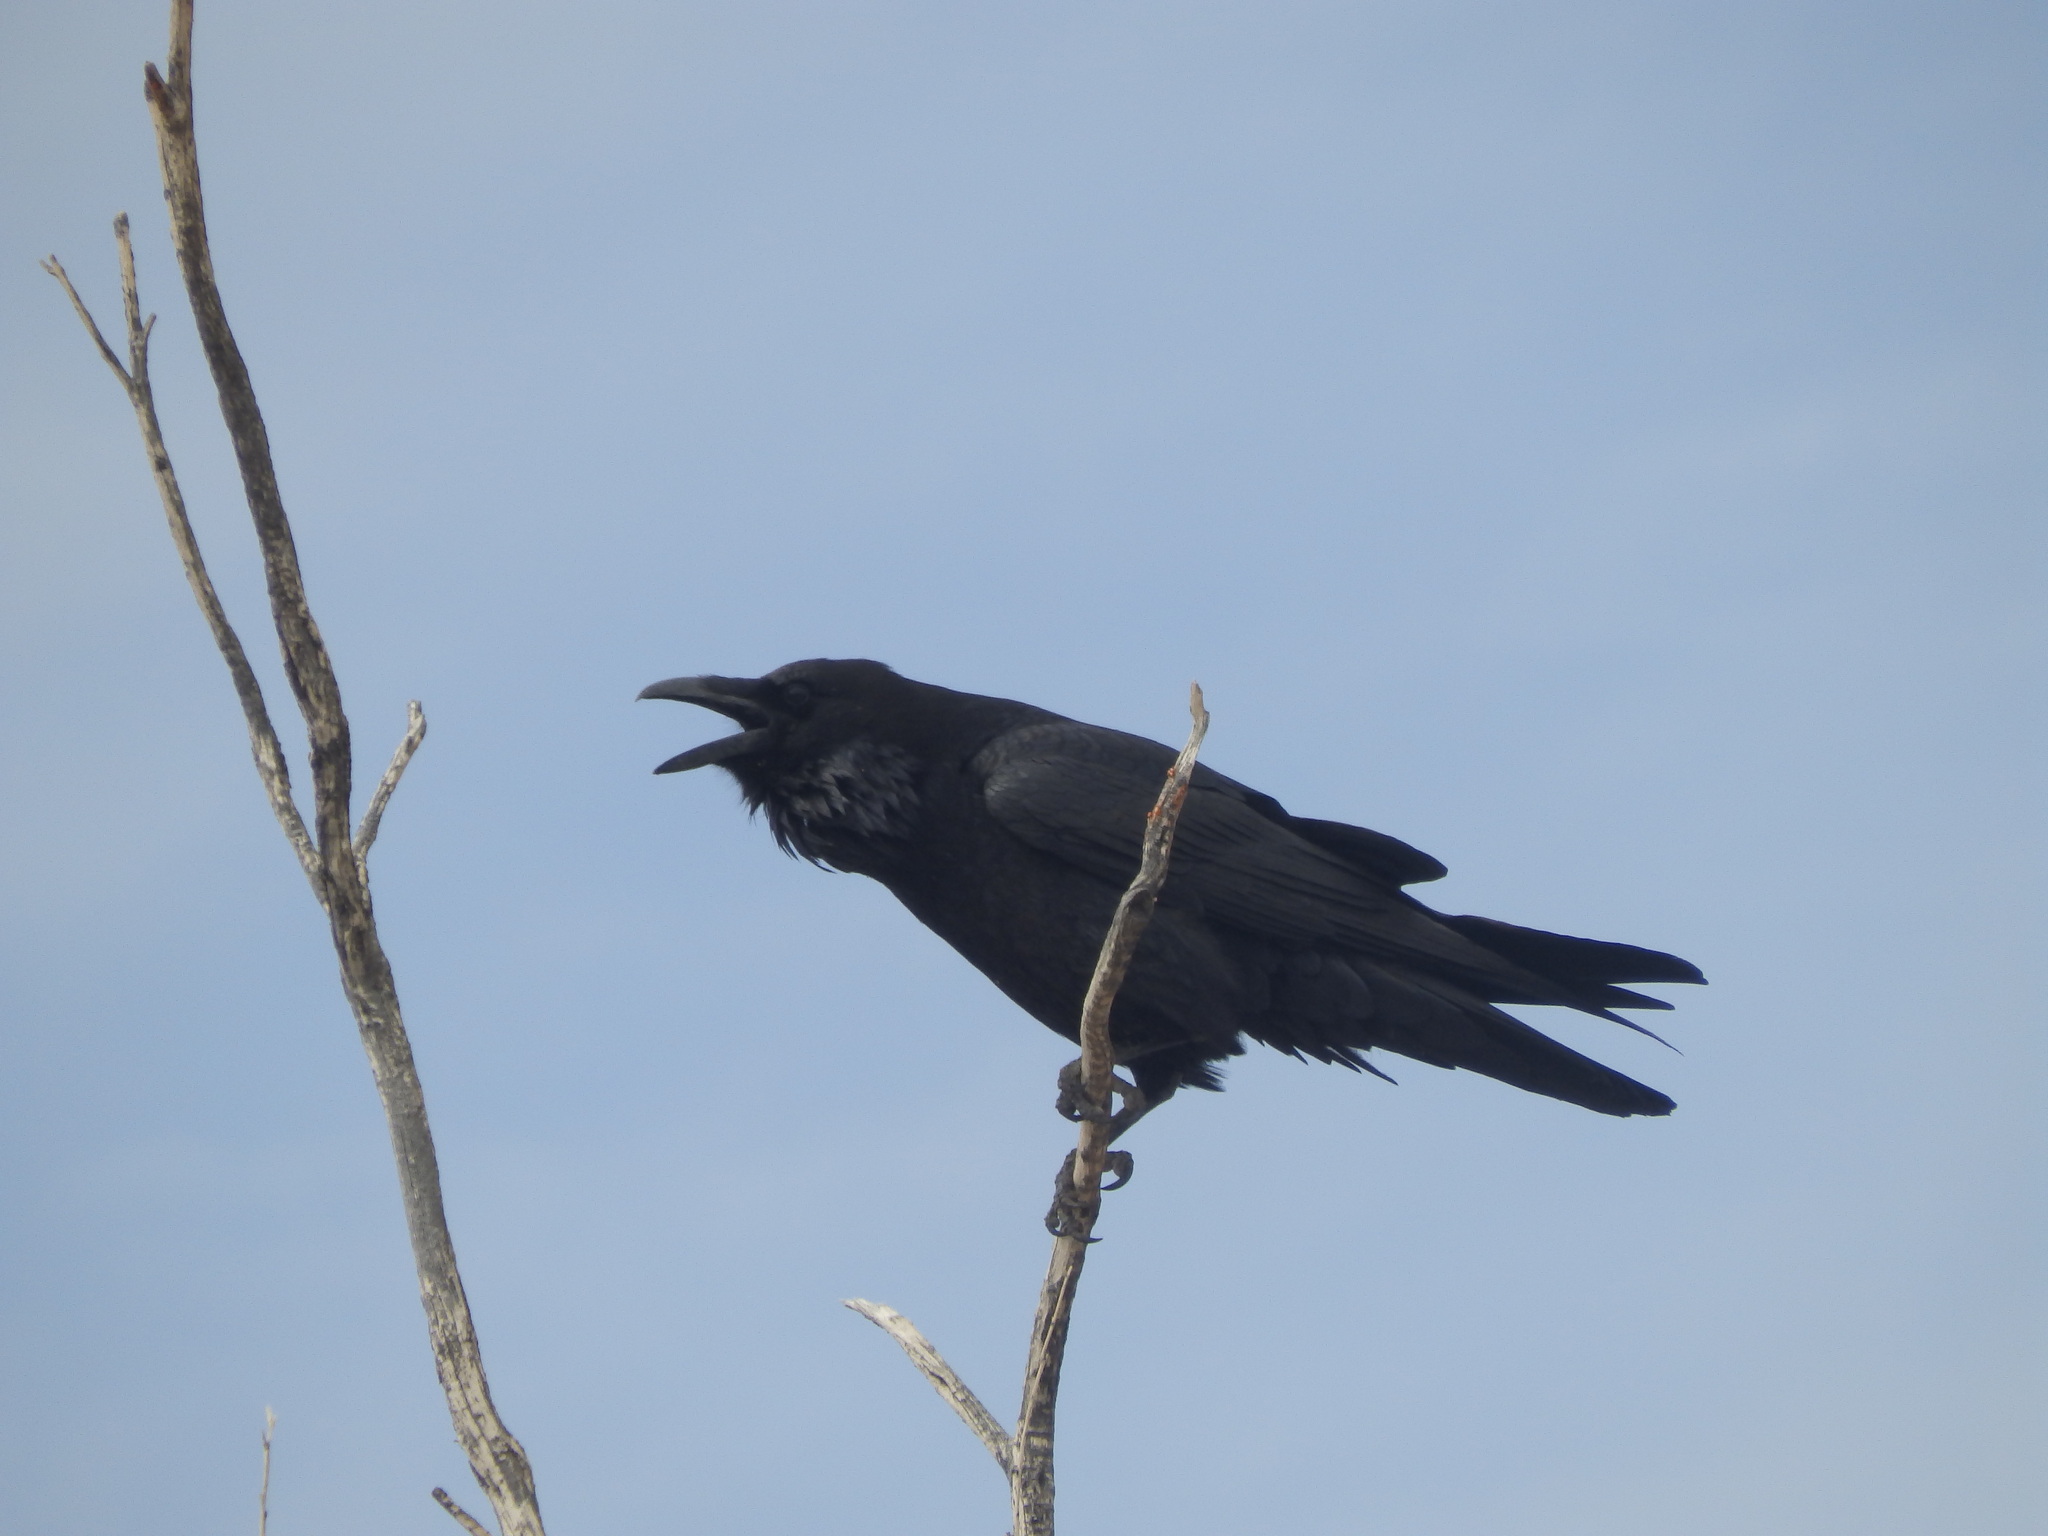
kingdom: Animalia
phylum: Chordata
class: Aves
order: Passeriformes
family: Corvidae
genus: Corvus
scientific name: Corvus corax
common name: Common raven
